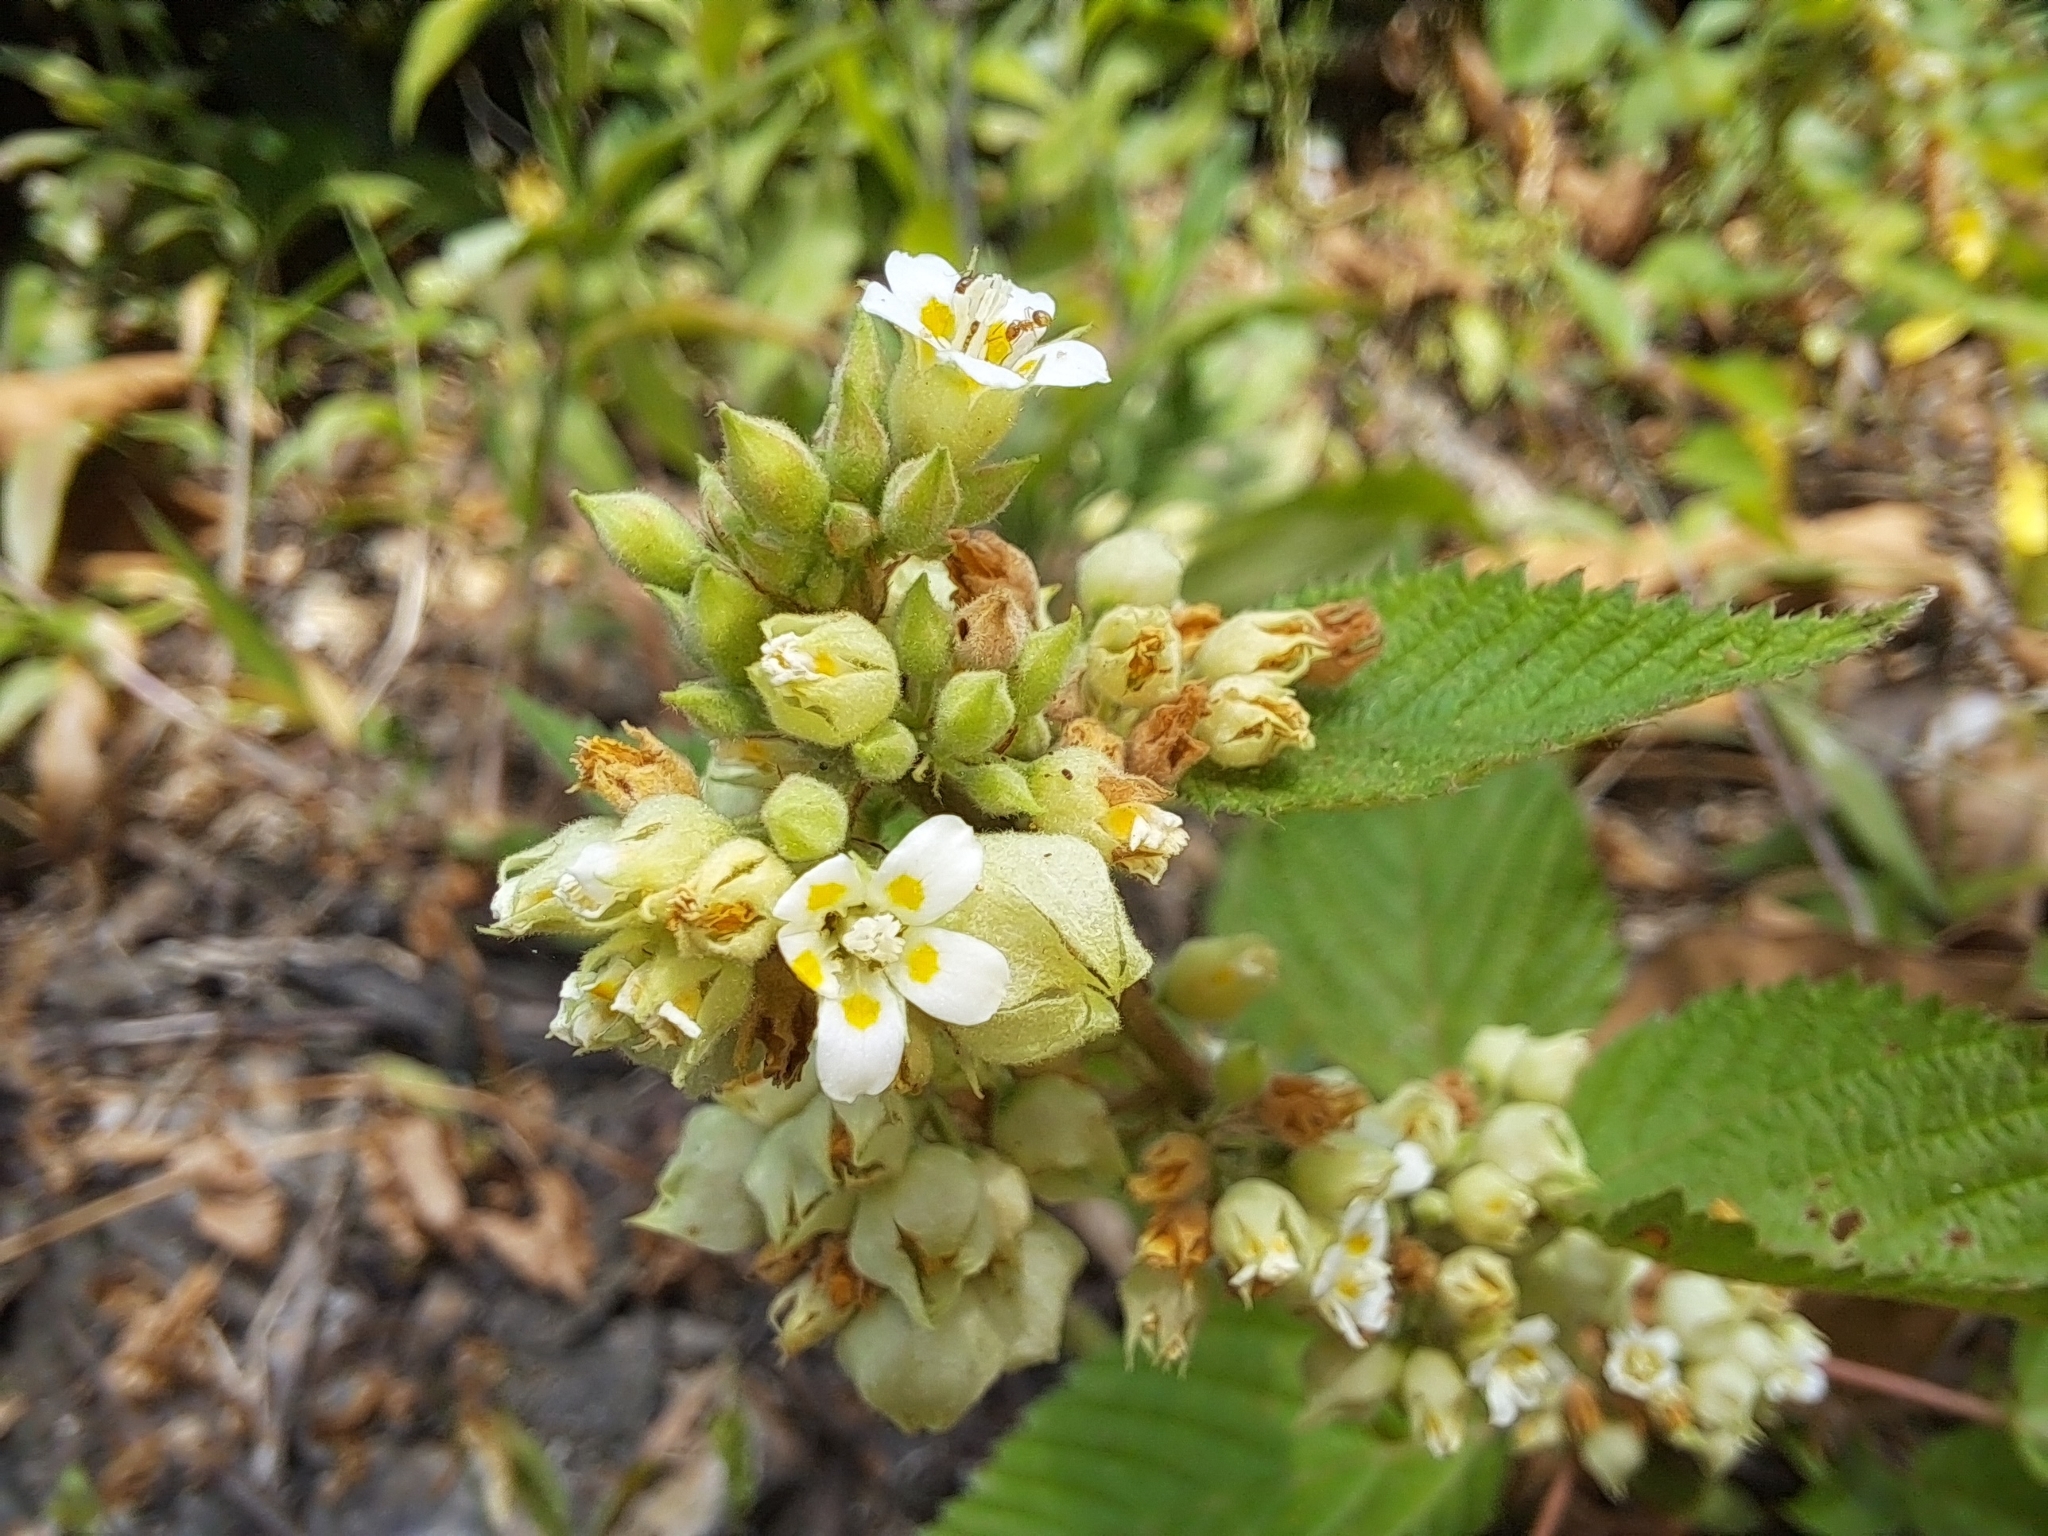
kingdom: Plantae
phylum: Tracheophyta
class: Magnoliopsida
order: Malvales
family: Malvaceae
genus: Melochia
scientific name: Melochia lupulina
